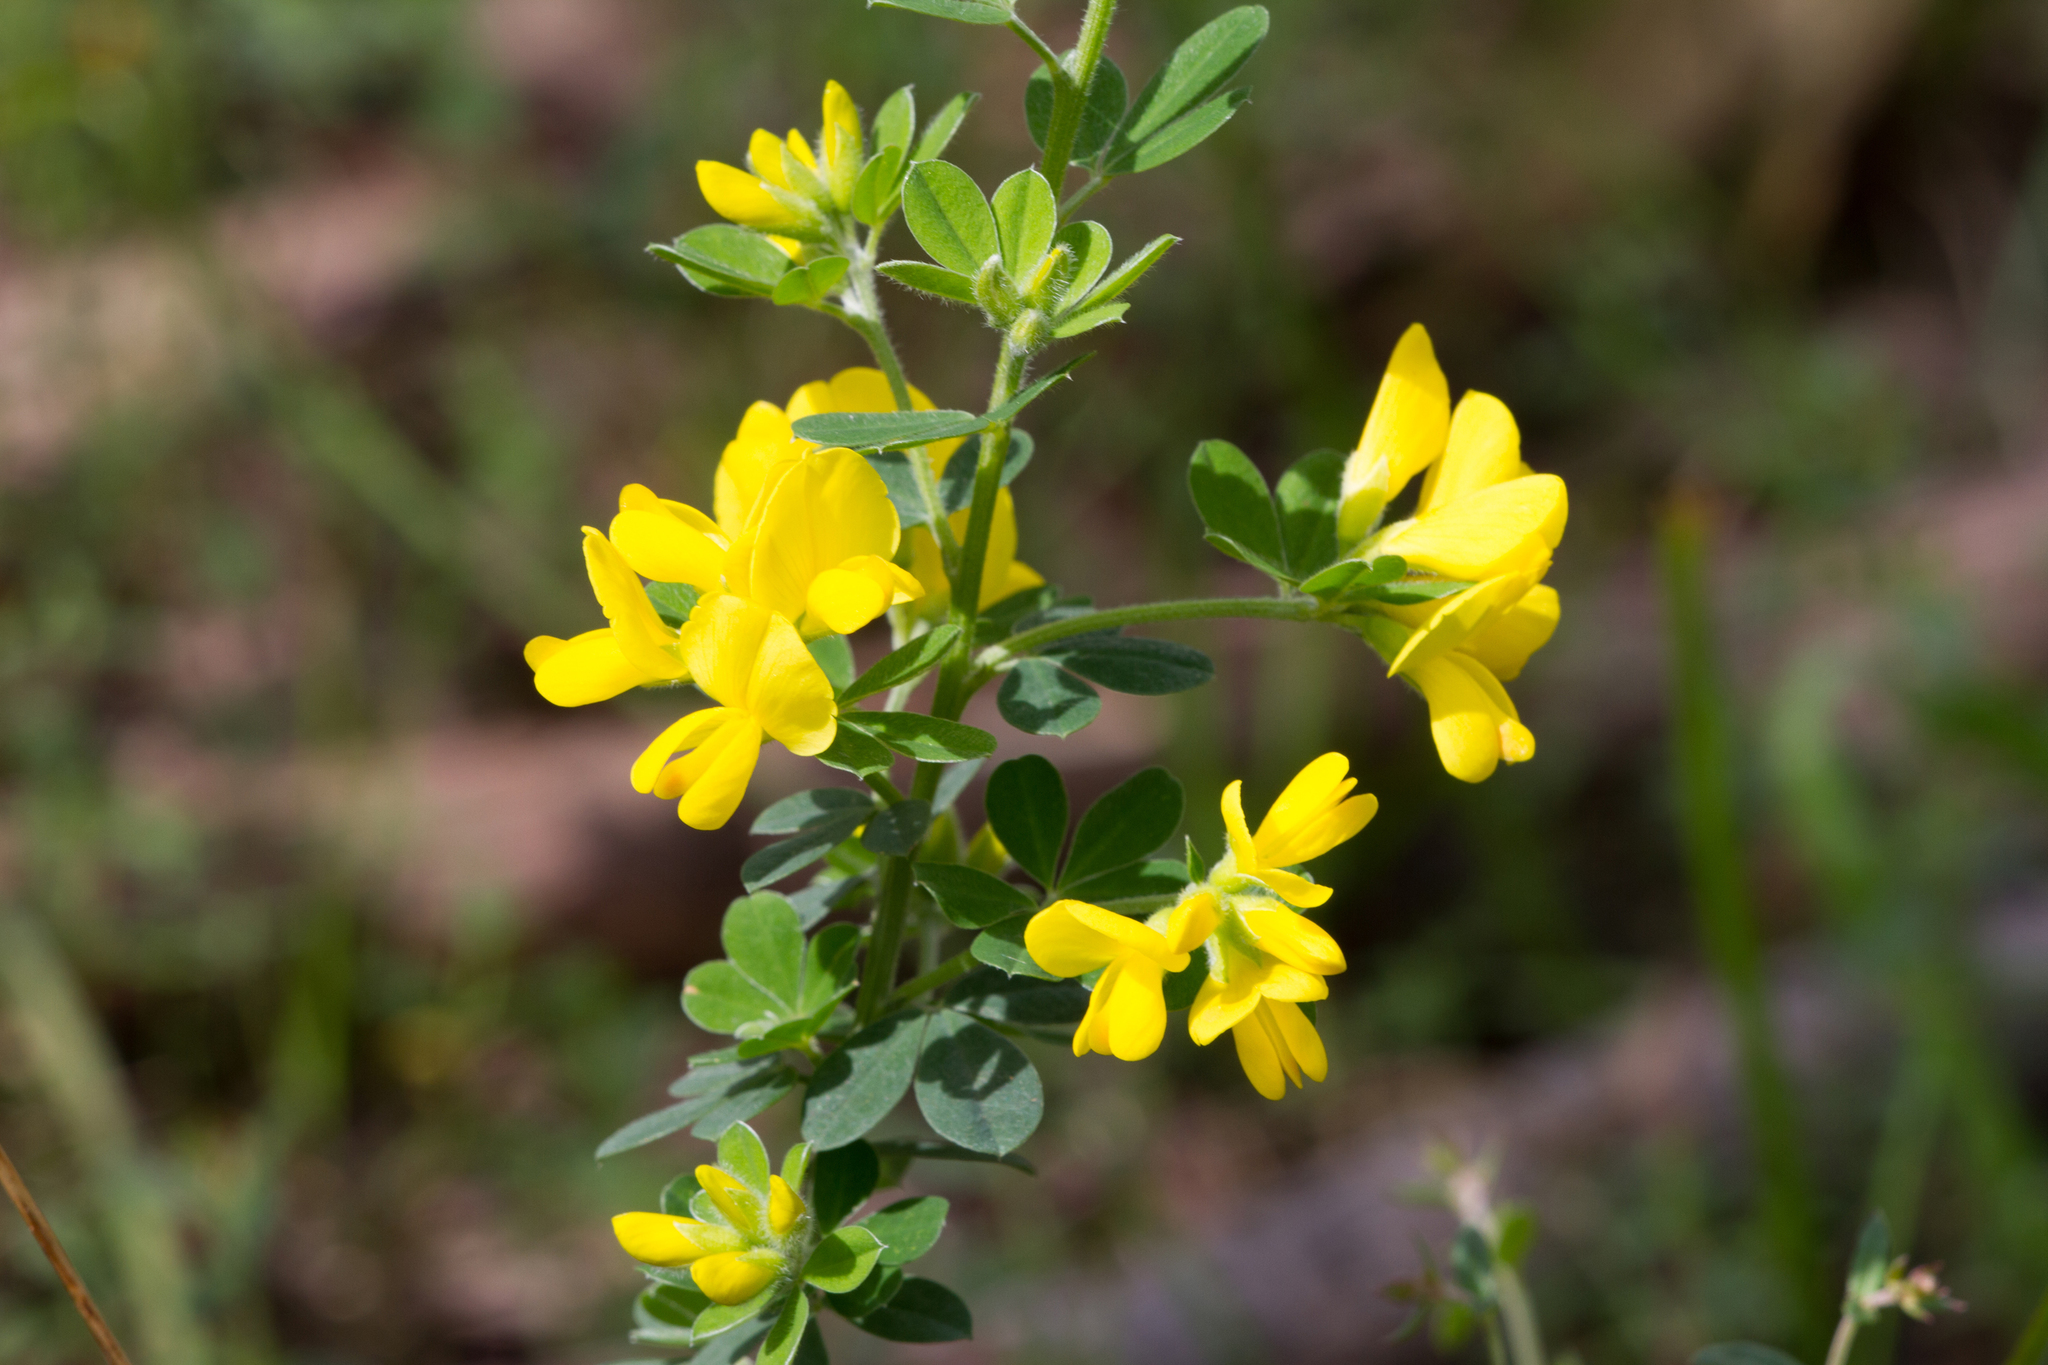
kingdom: Plantae
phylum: Tracheophyta
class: Magnoliopsida
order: Fabales
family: Fabaceae
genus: Genista
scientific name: Genista monspessulana
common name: Montpellier broom
